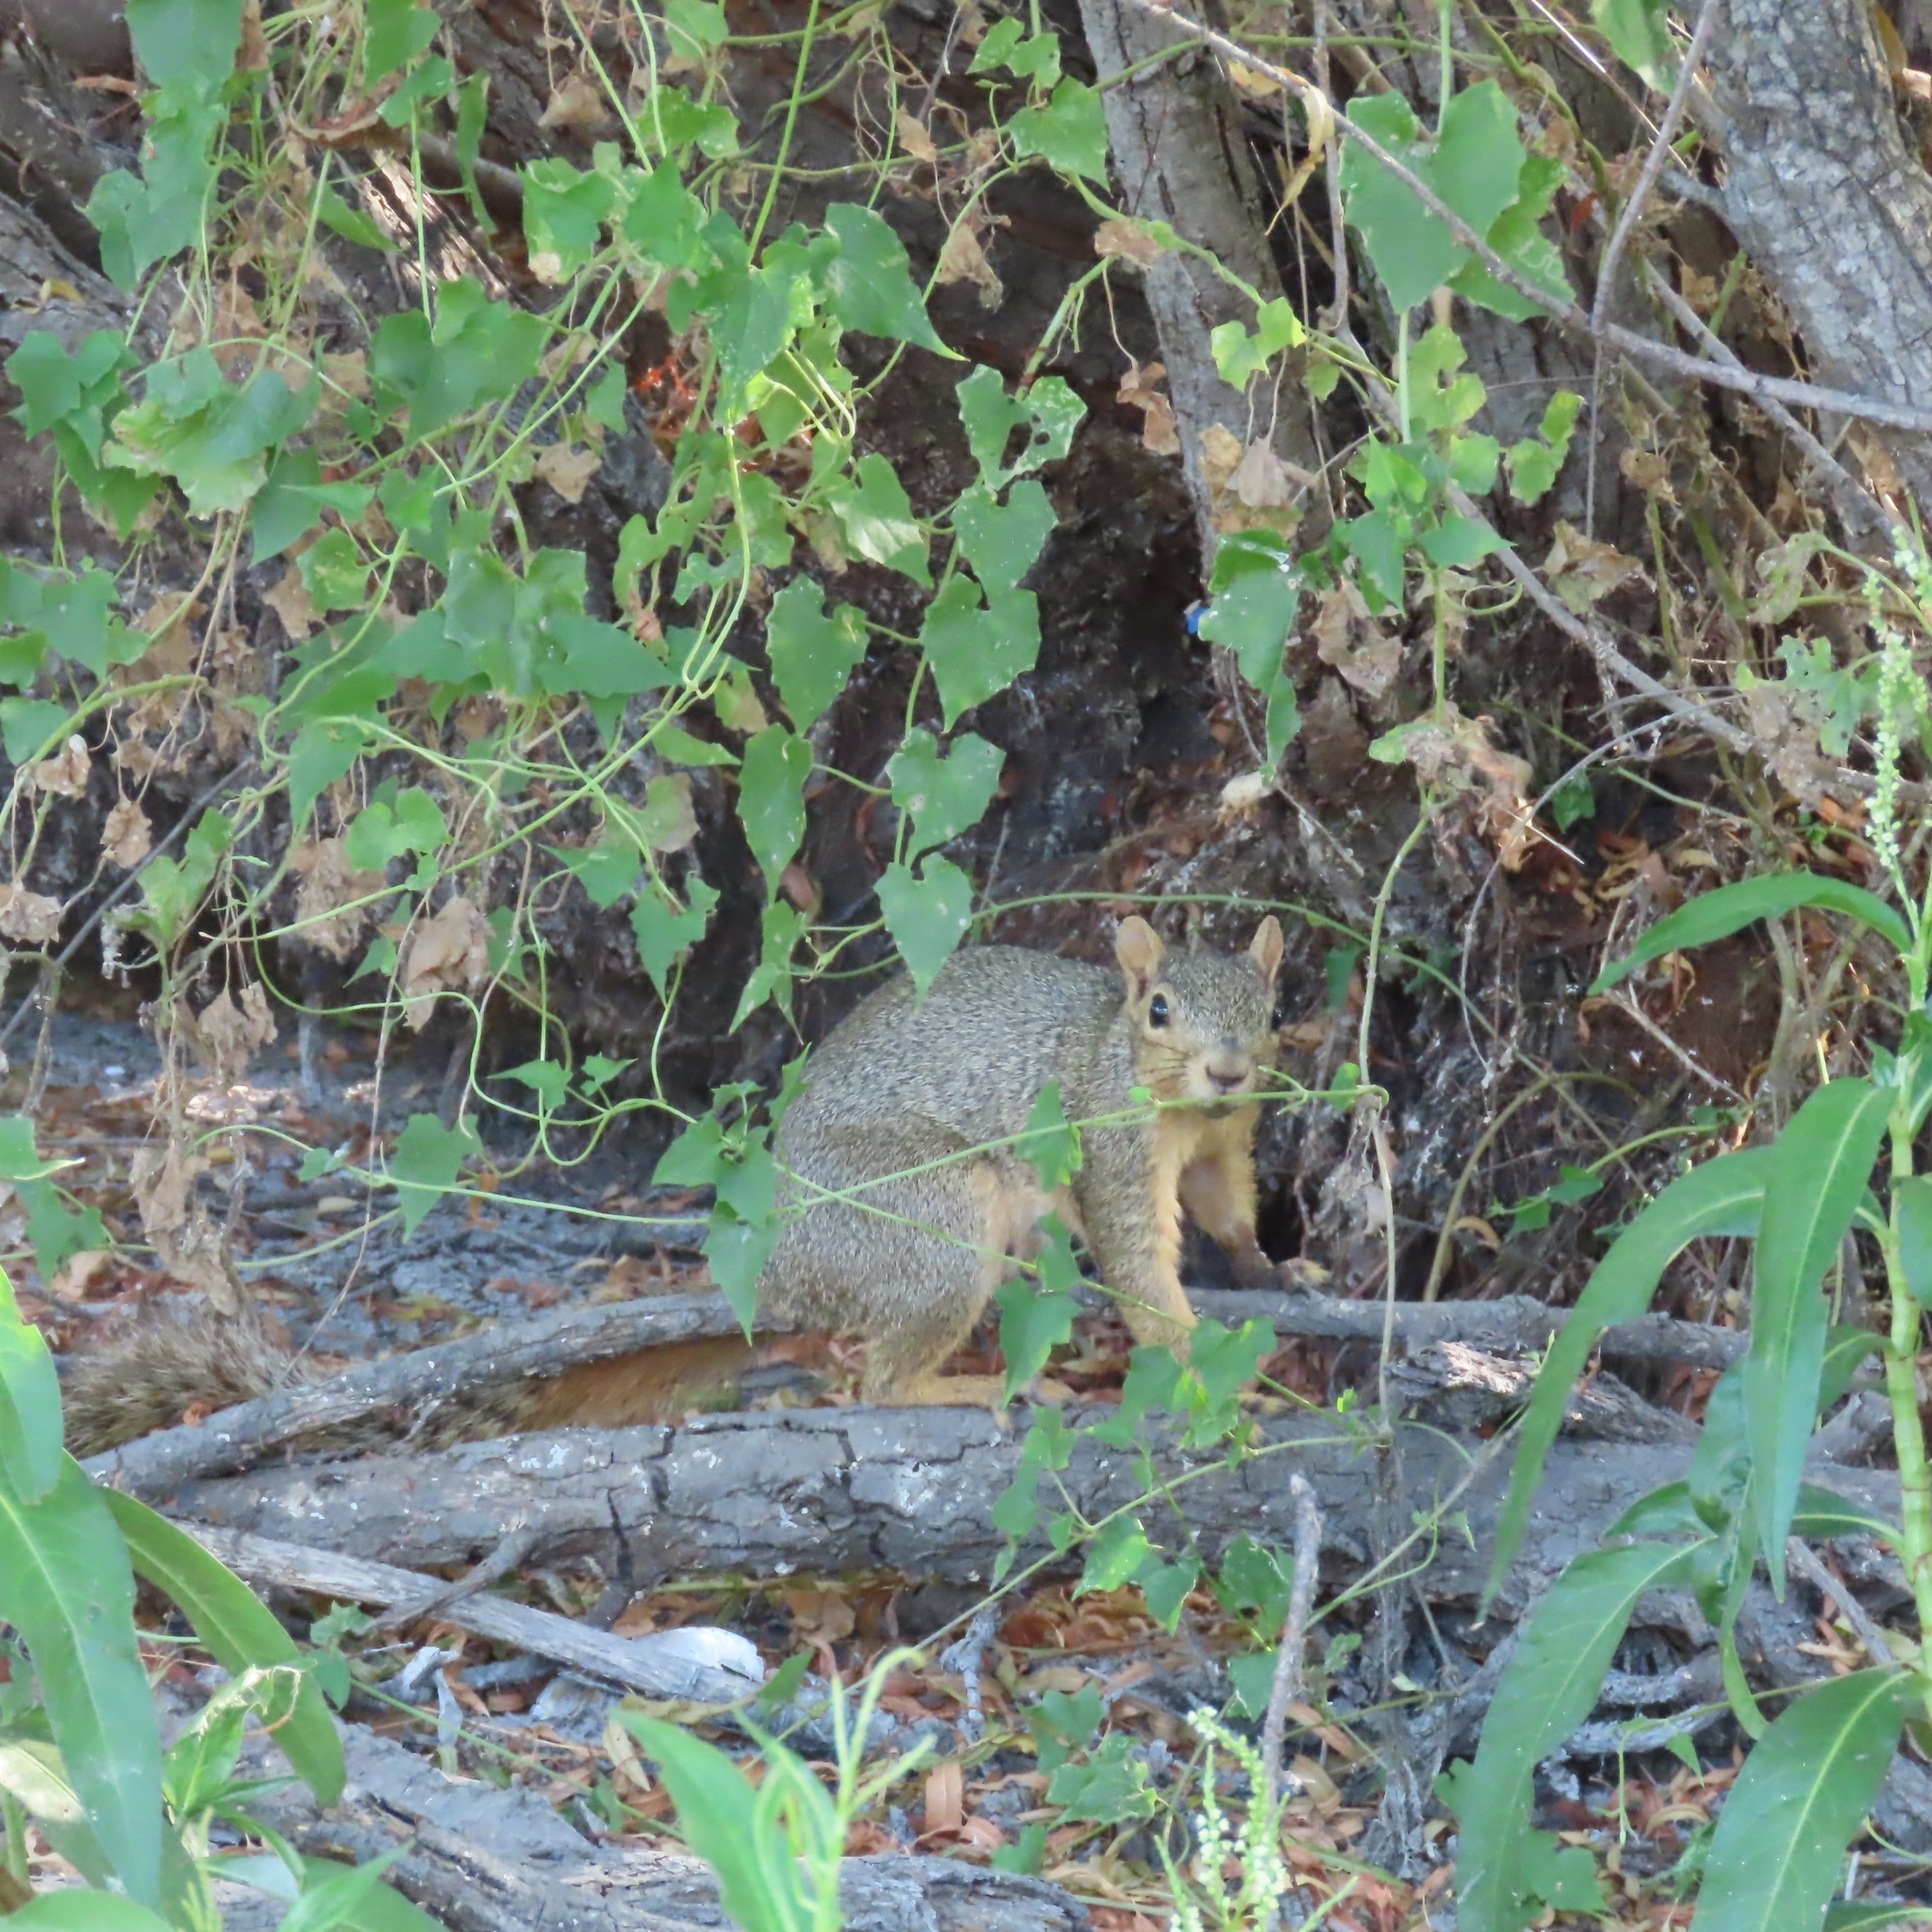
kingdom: Animalia
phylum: Chordata
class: Mammalia
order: Rodentia
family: Sciuridae
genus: Sciurus
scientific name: Sciurus niger
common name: Fox squirrel
